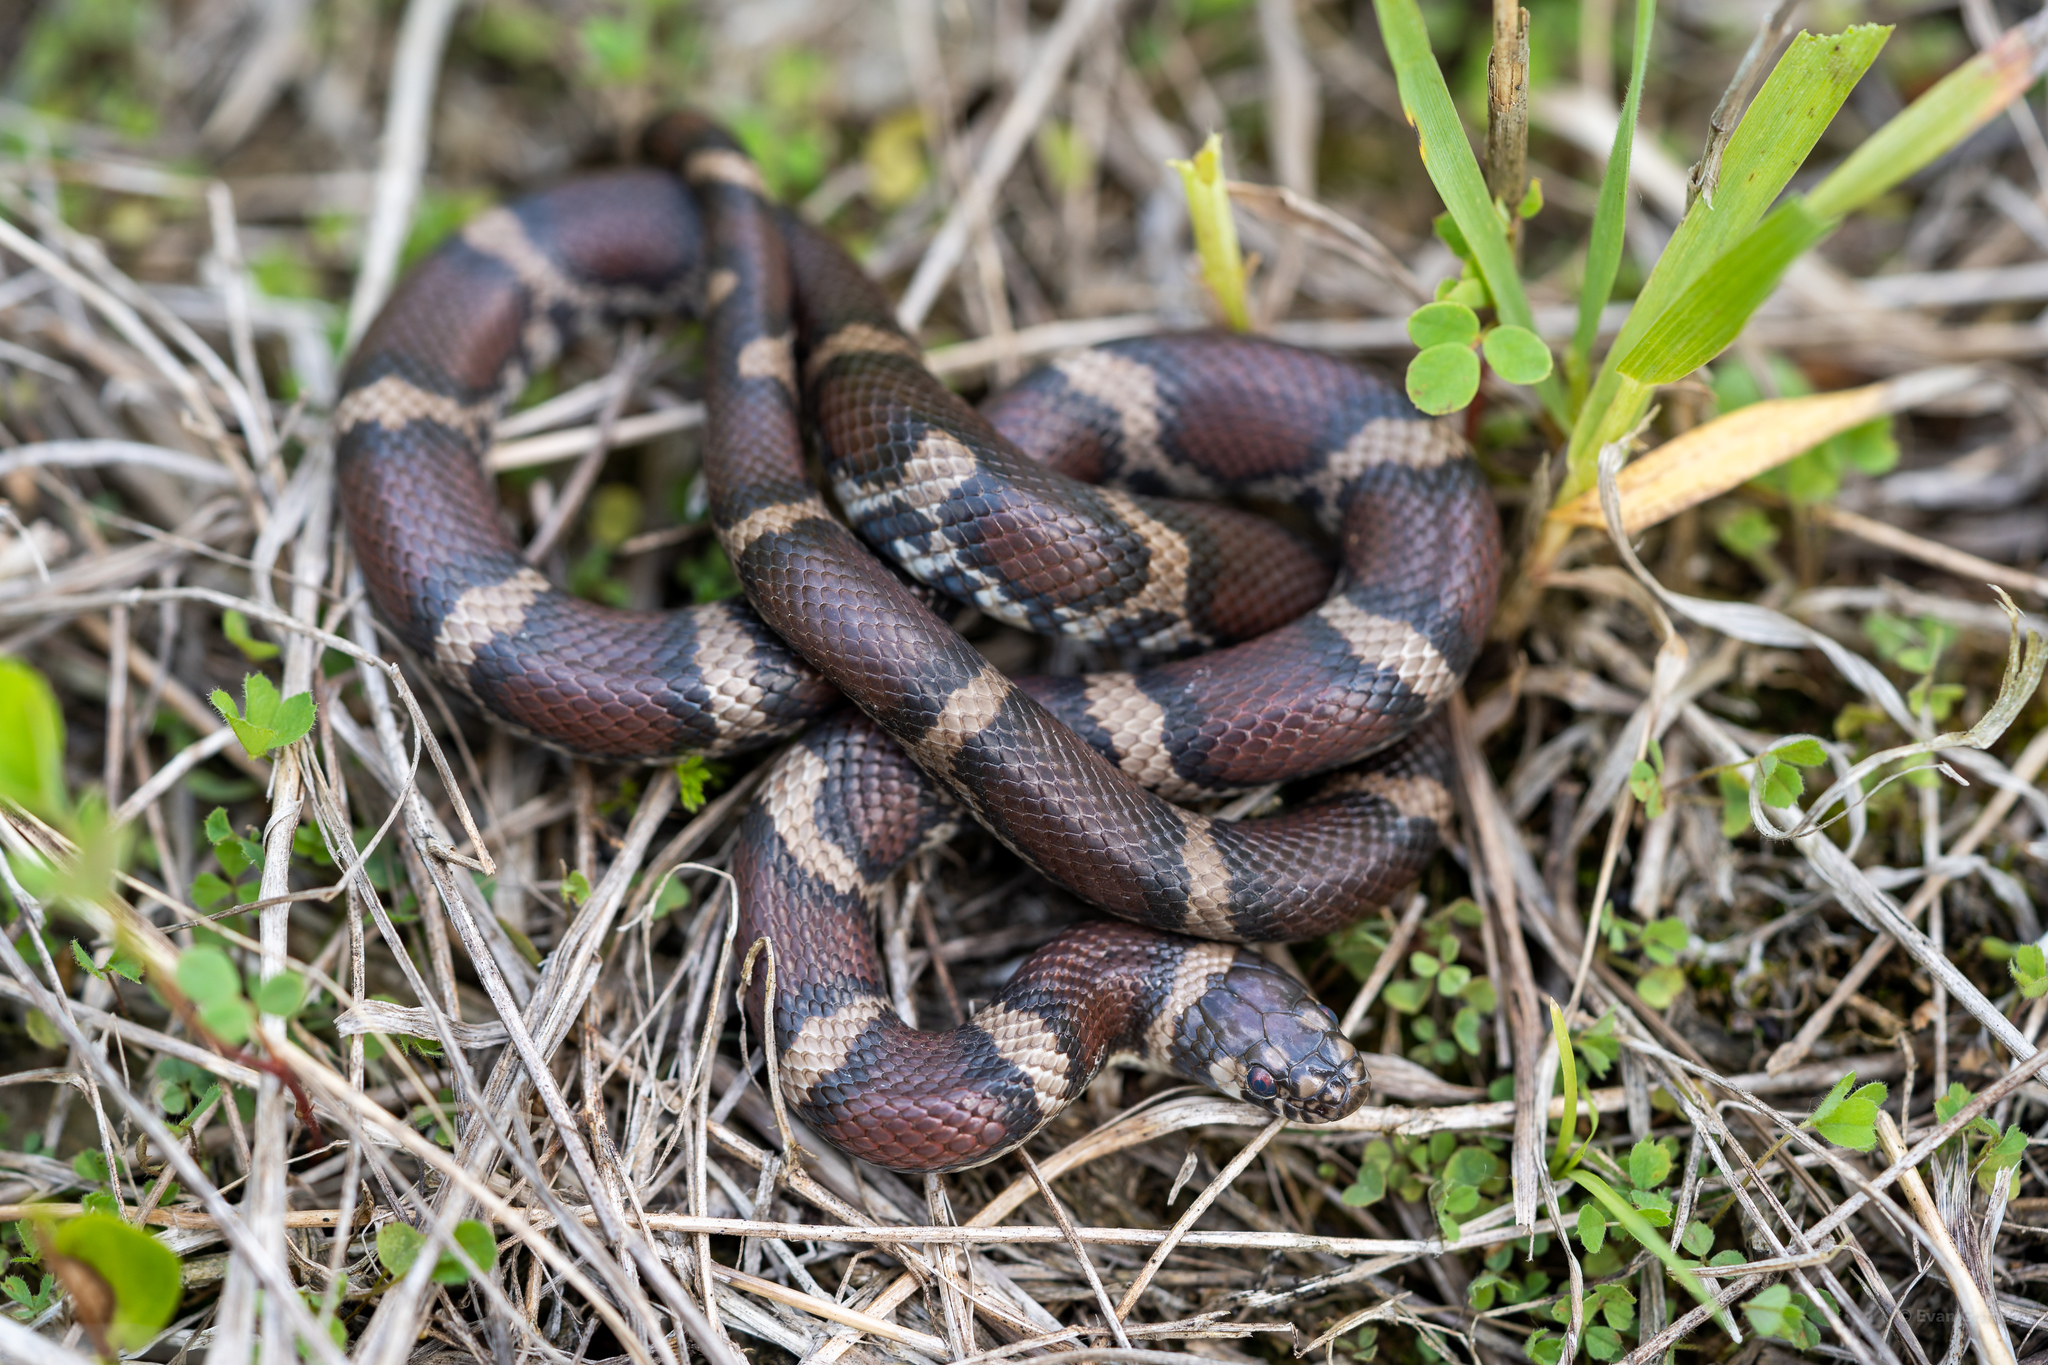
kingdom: Animalia
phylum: Chordata
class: Squamata
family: Colubridae
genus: Lampropeltis
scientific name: Lampropeltis triangulum
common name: Eastern milksnake
